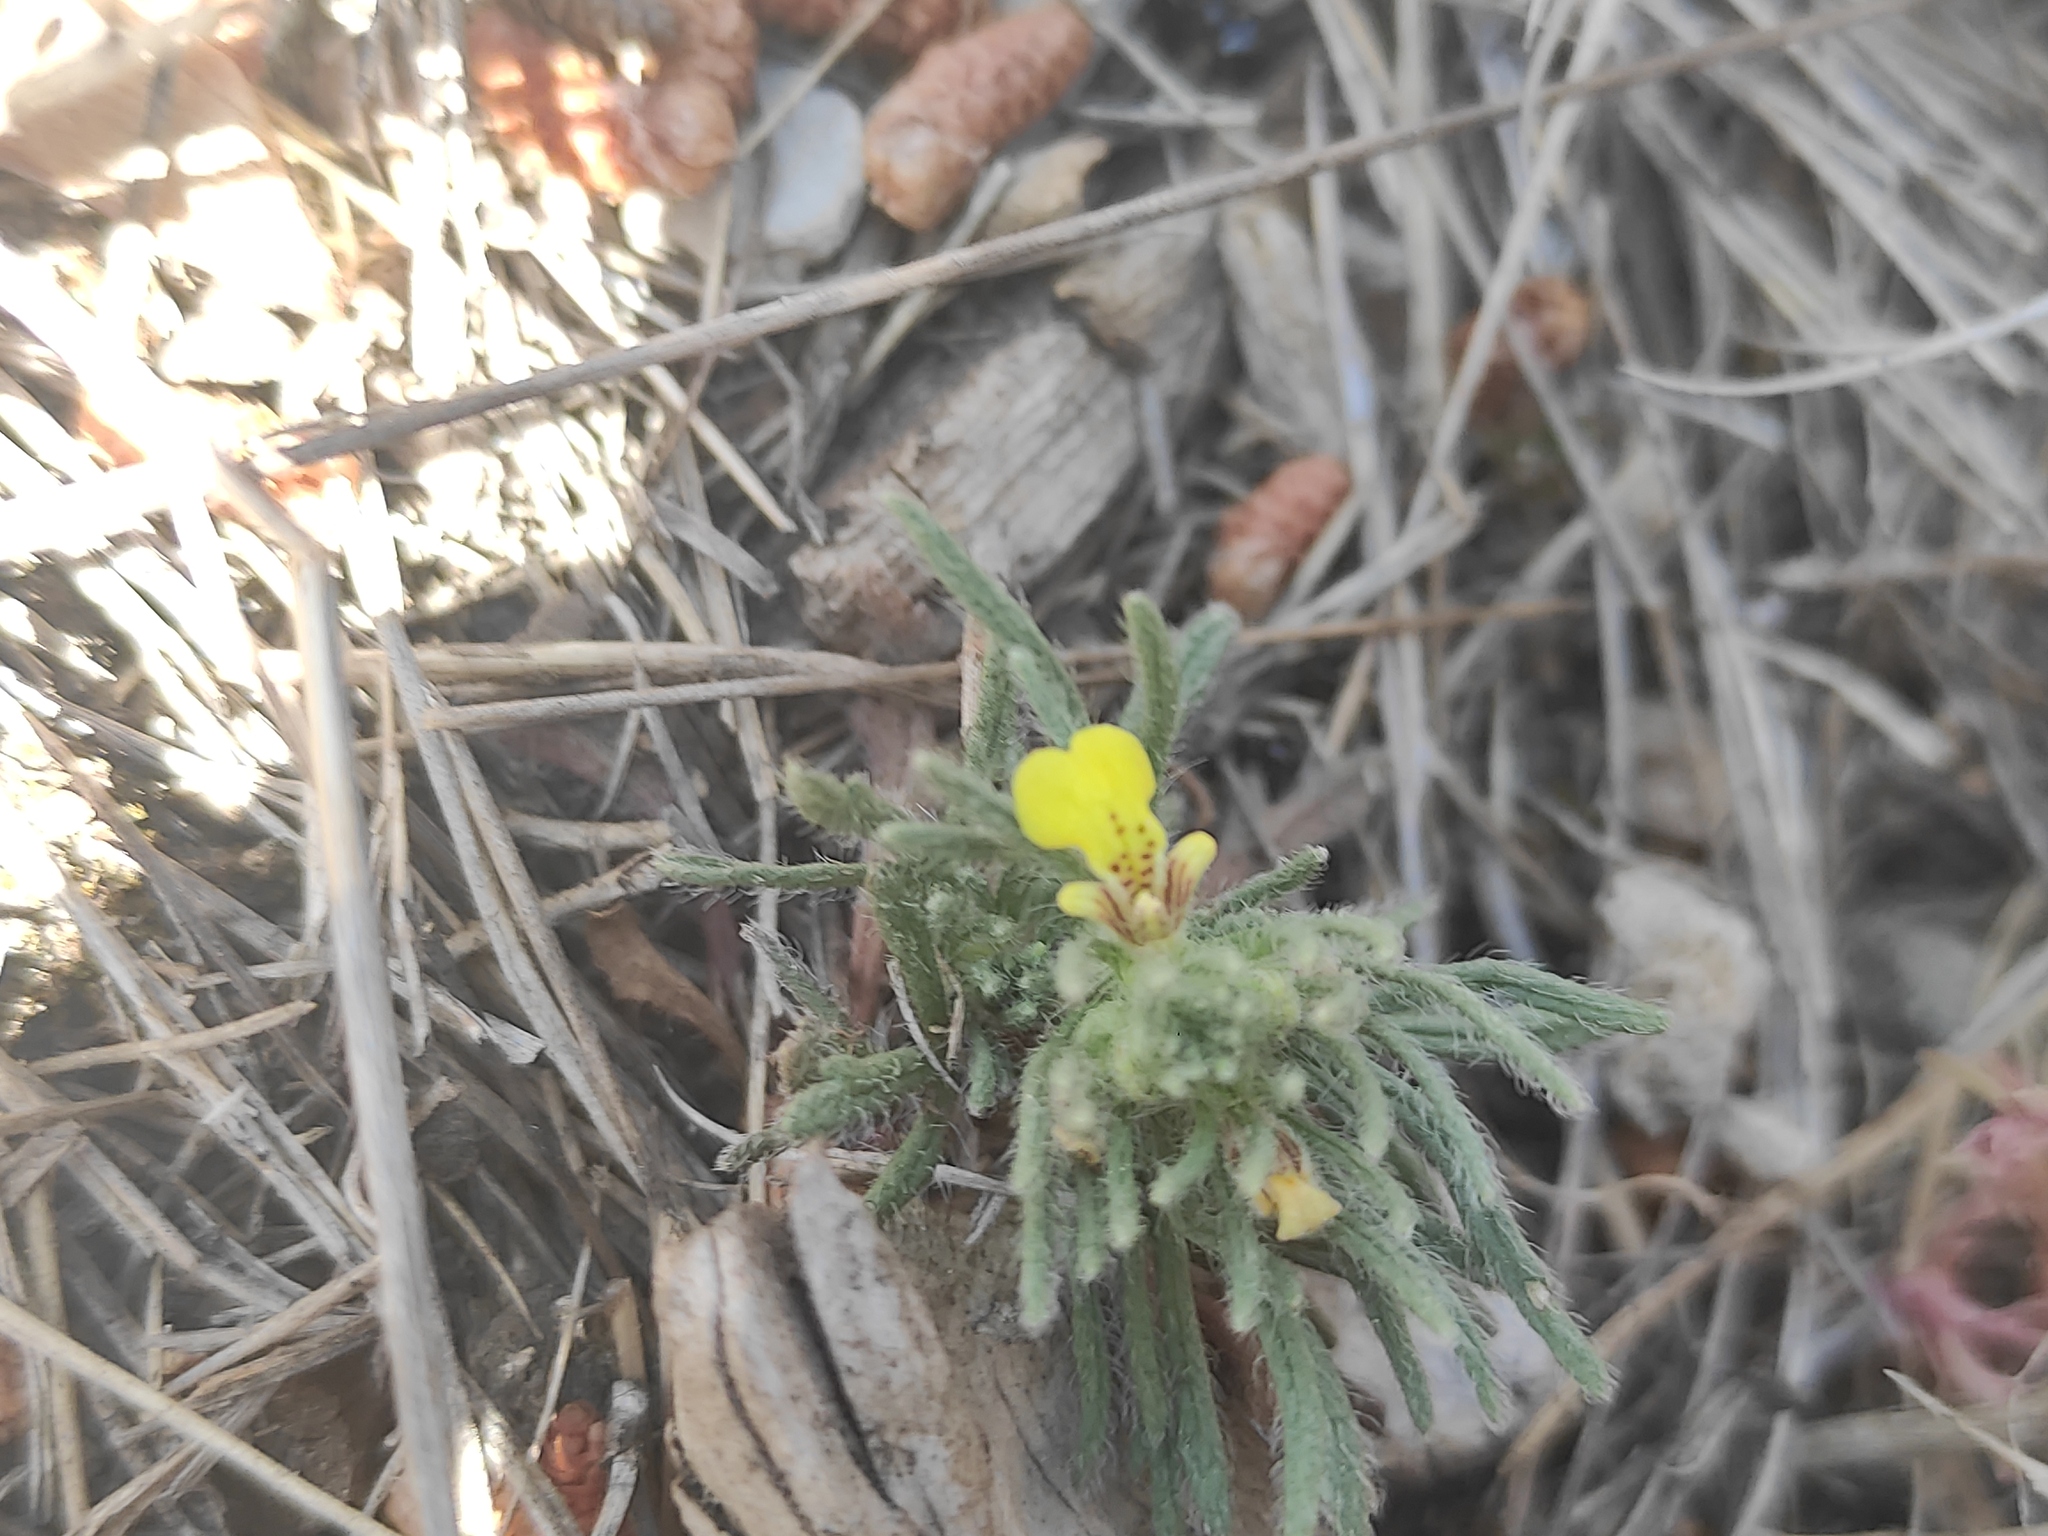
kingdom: Plantae
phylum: Tracheophyta
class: Magnoliopsida
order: Lamiales
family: Lamiaceae
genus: Ajuga
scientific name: Ajuga chamaepitys
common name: Ground-pine
